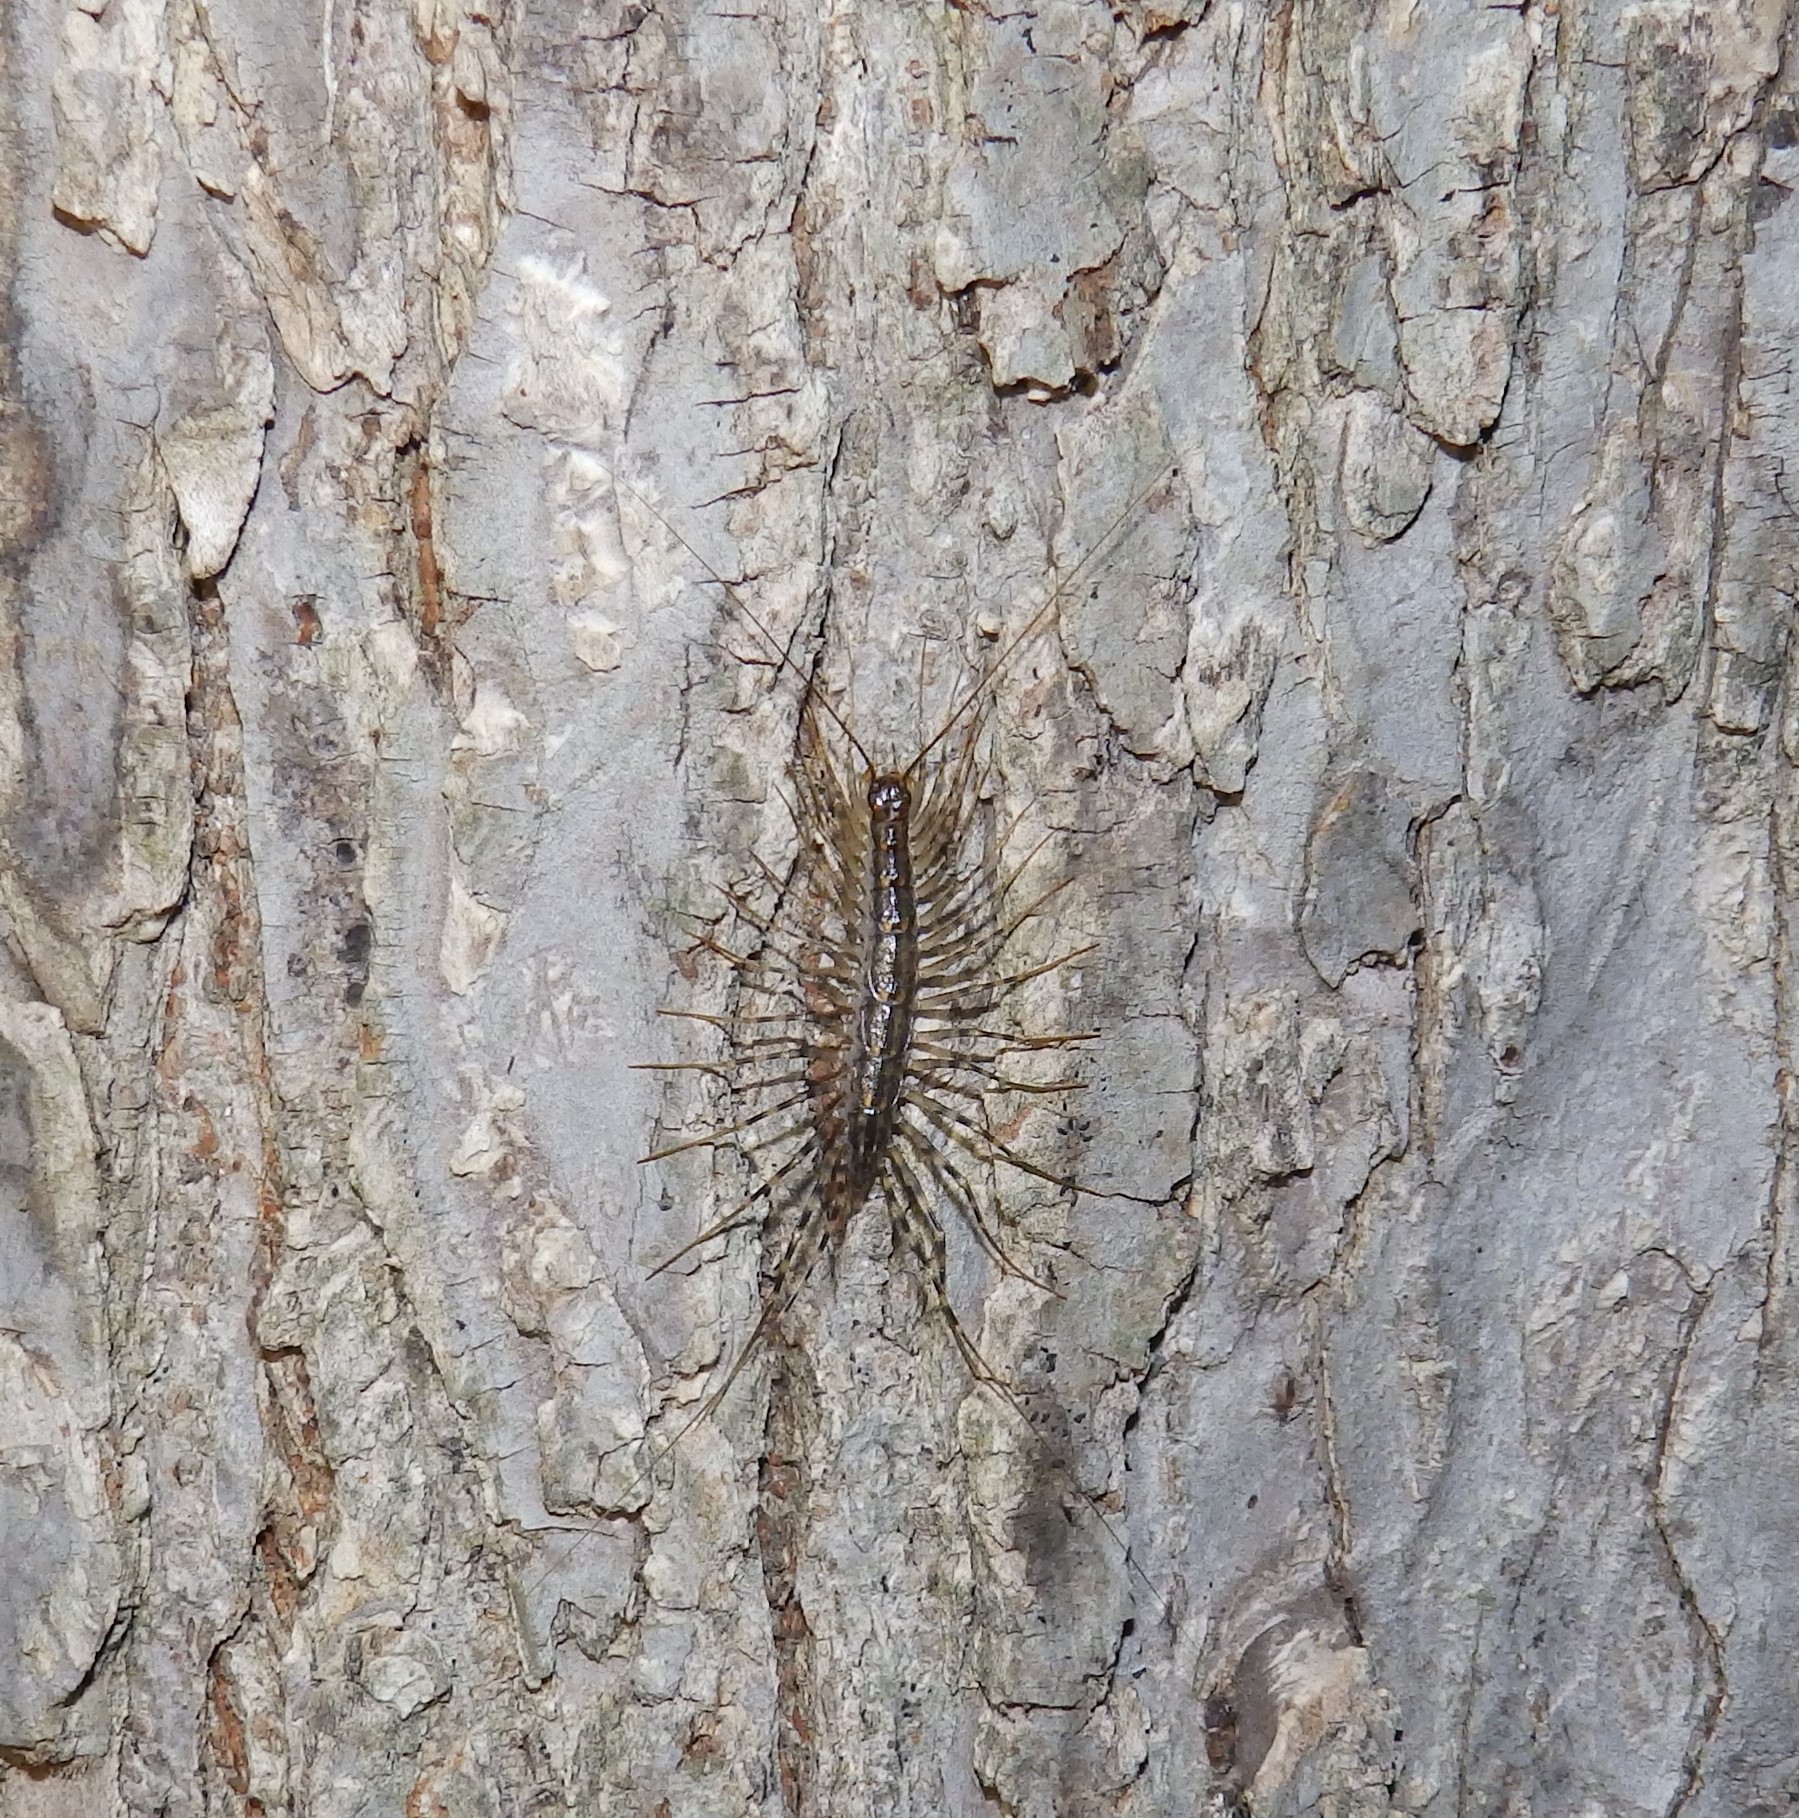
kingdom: Animalia
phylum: Arthropoda
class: Chilopoda
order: Scutigeromorpha
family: Scutigeridae
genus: Scutigera
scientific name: Scutigera coleoptrata
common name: House centipede
